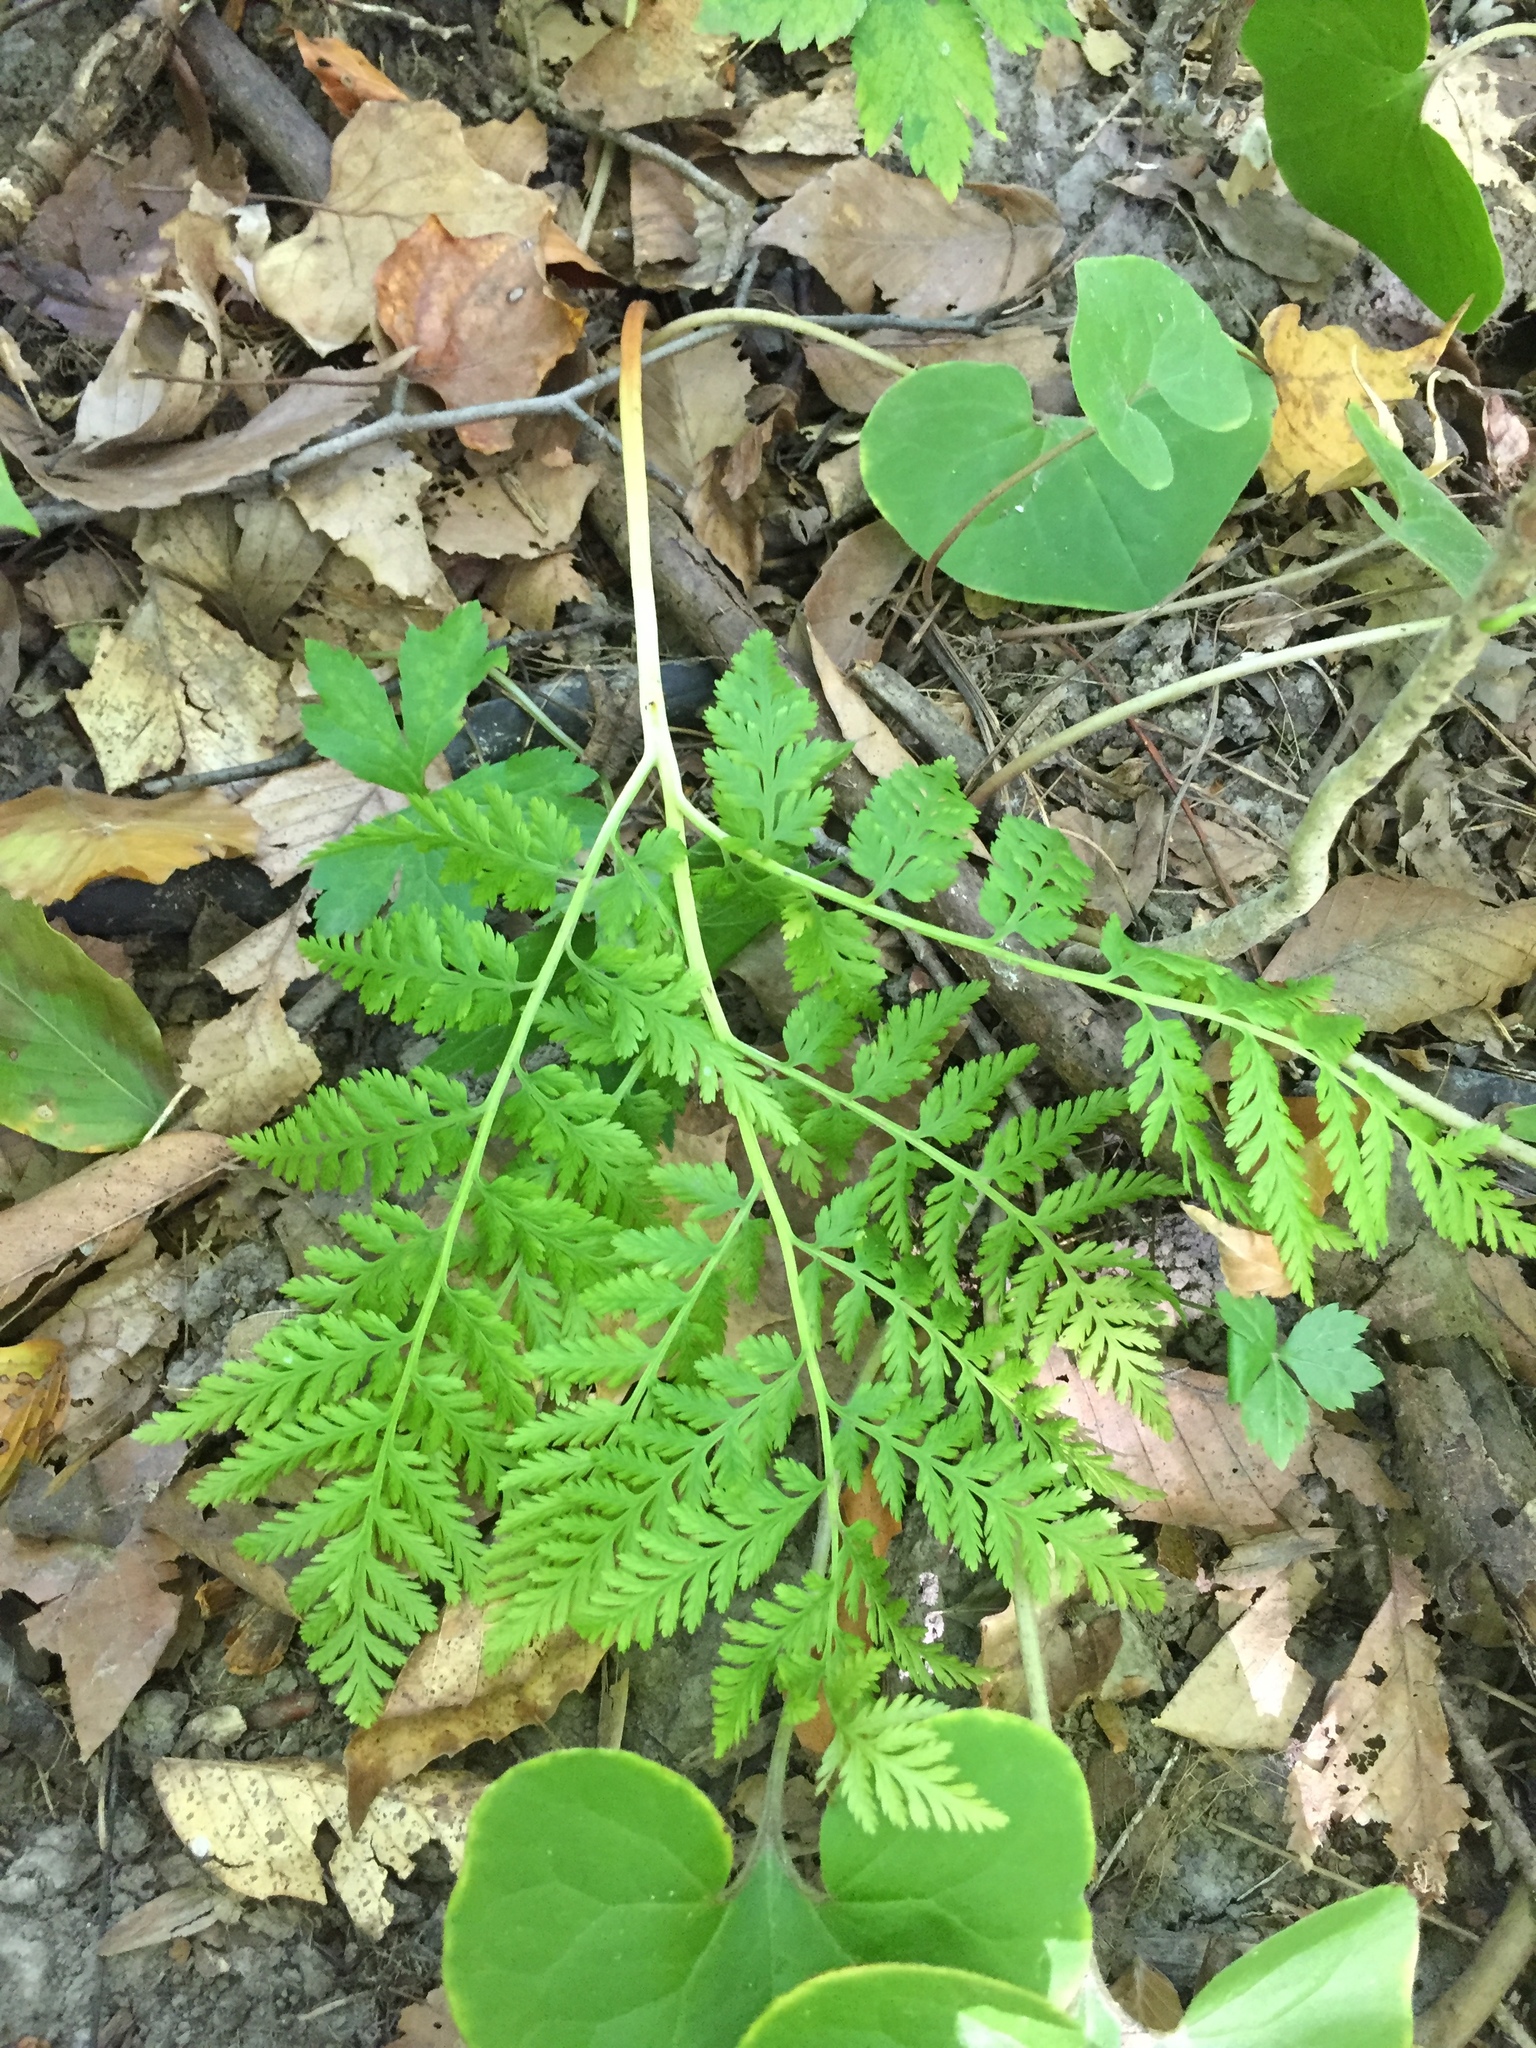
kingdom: Plantae
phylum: Tracheophyta
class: Polypodiopsida
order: Ophioglossales
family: Ophioglossaceae
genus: Botrypus
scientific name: Botrypus virginianus
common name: Common grapefern
